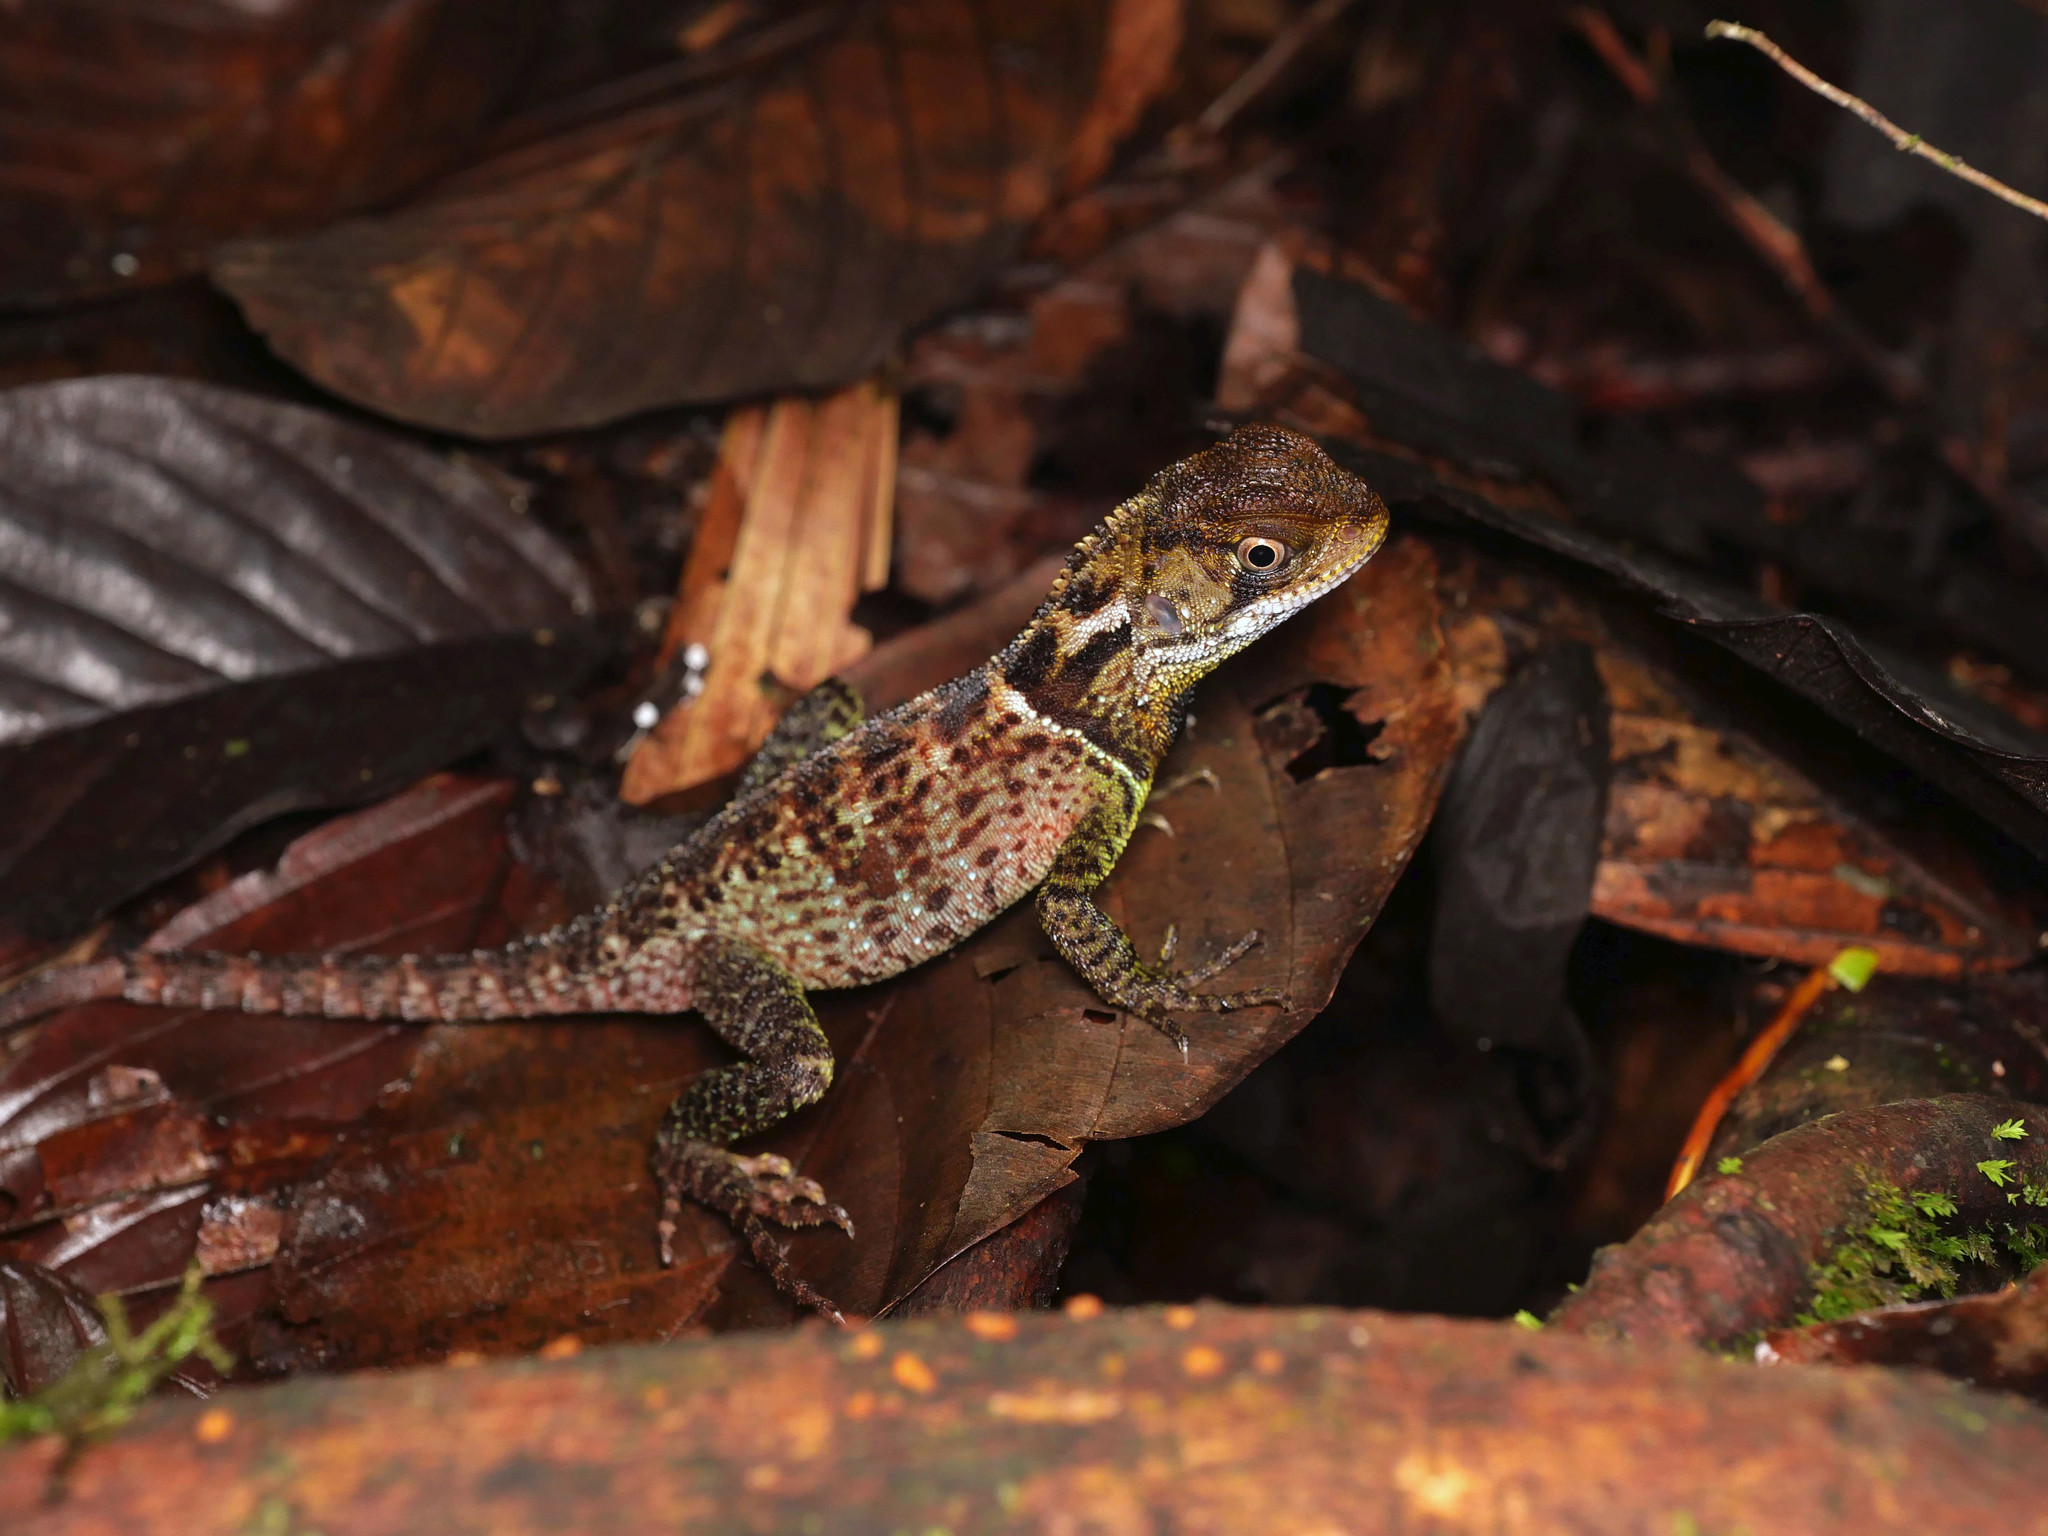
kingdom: Animalia
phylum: Chordata
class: Squamata
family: Hoplocercidae
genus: Enyalioides
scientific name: Enyalioides heterolepis
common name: Bocourt's dwarf iguana
